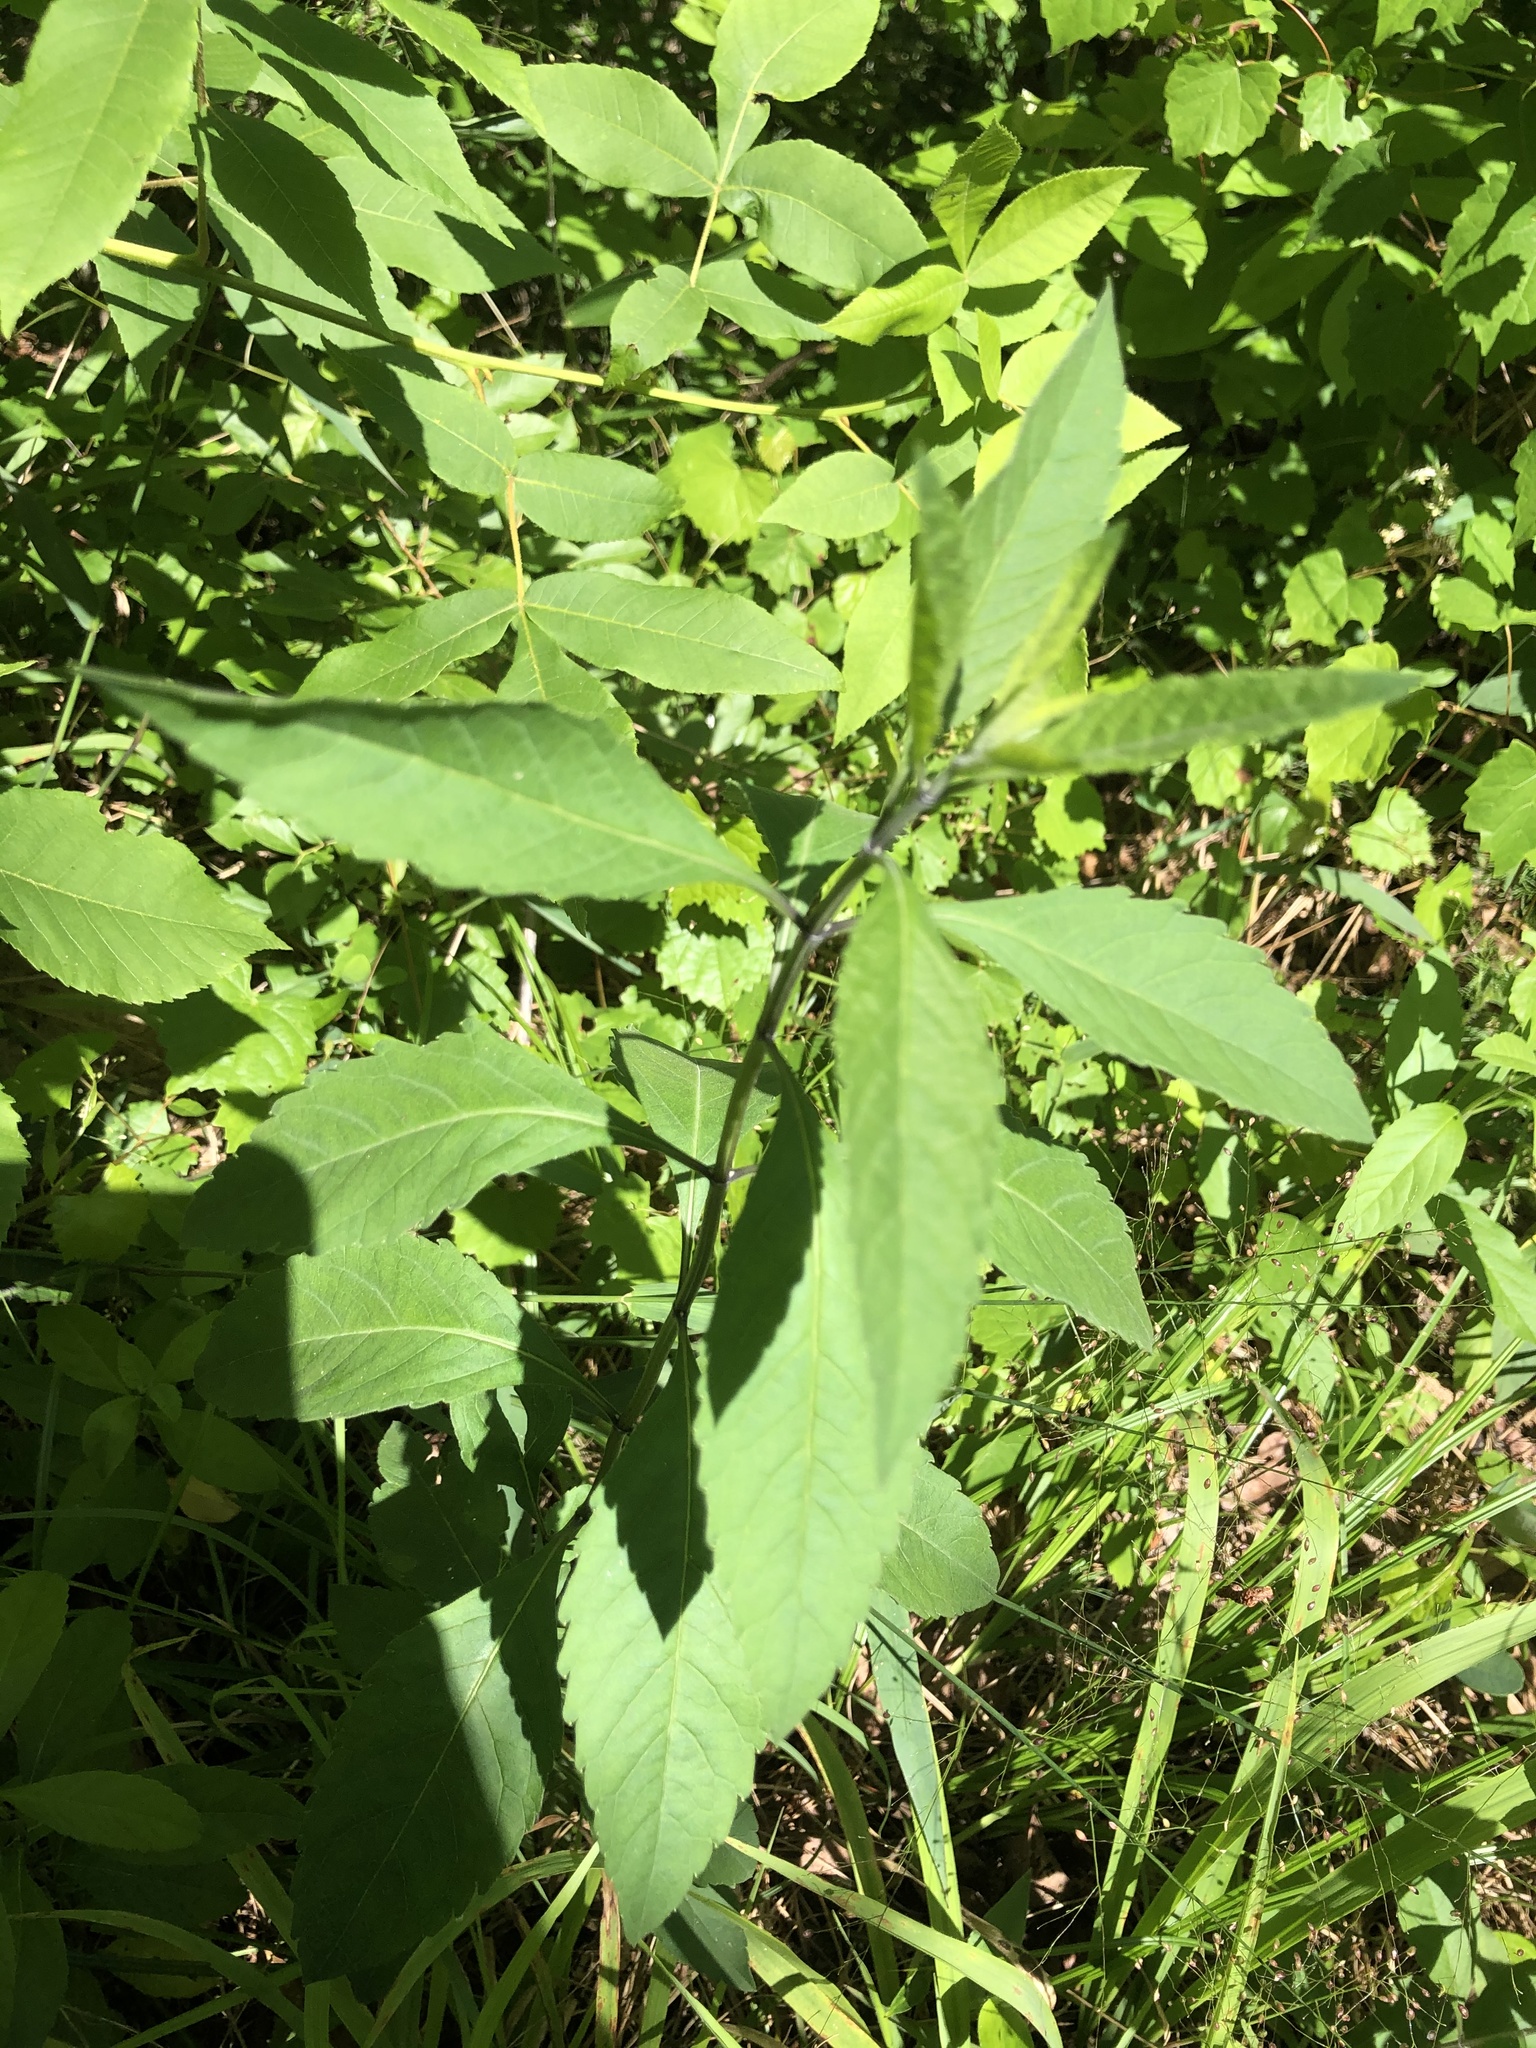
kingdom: Plantae
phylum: Tracheophyta
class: Magnoliopsida
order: Lamiales
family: Lamiaceae
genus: Salvia
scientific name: Salvia azurea
